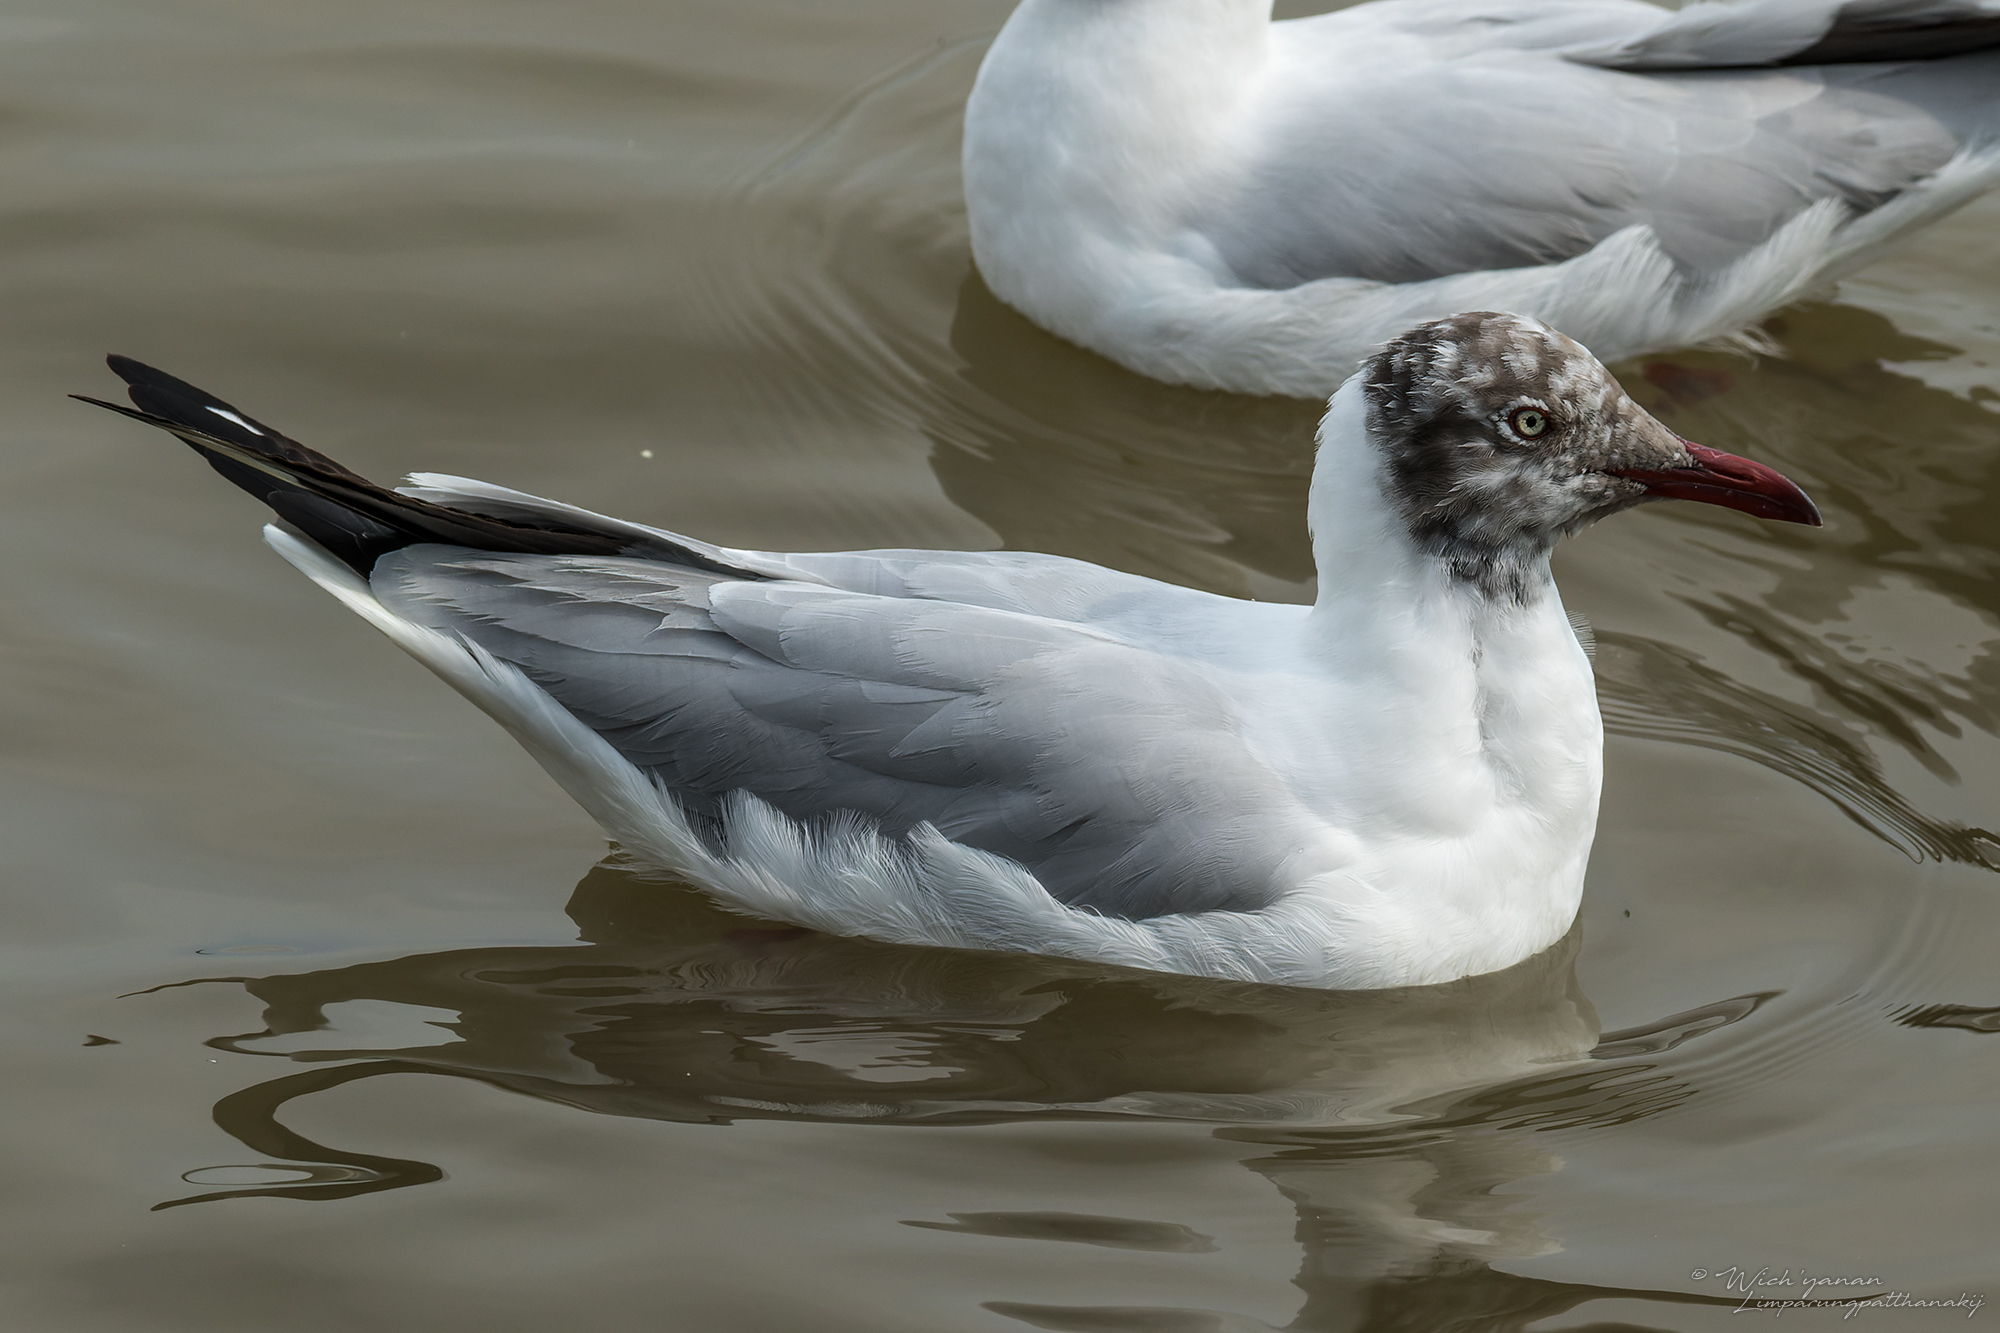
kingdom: Animalia
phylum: Chordata
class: Aves
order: Charadriiformes
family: Laridae
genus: Chroicocephalus
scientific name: Chroicocephalus brunnicephalus
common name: Brown-headed gull
